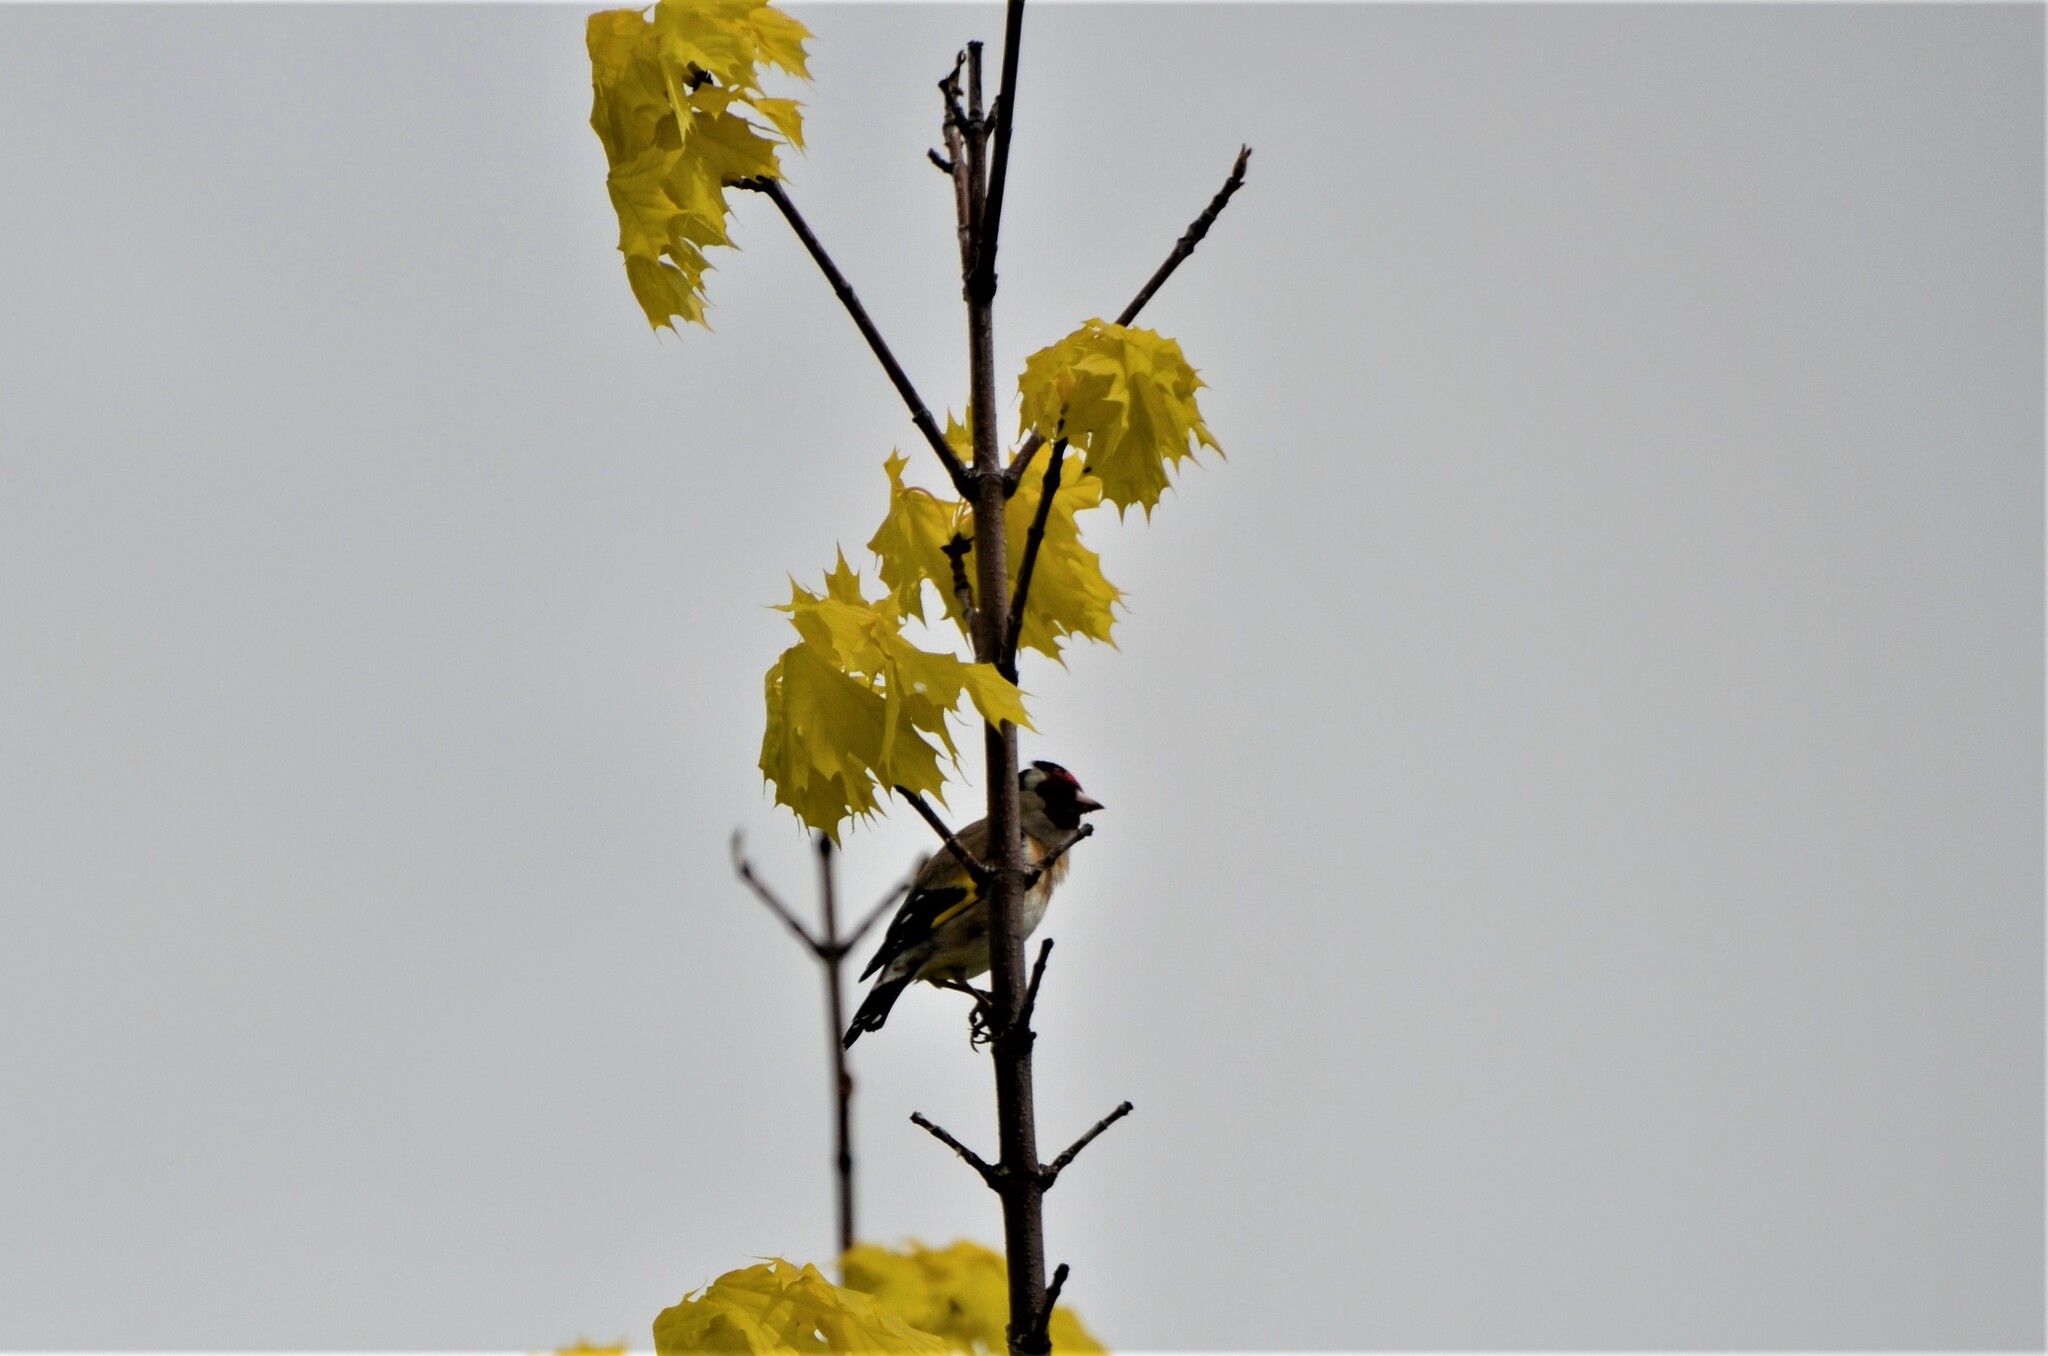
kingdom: Animalia
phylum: Chordata
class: Aves
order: Passeriformes
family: Fringillidae
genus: Carduelis
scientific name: Carduelis carduelis
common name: European goldfinch
